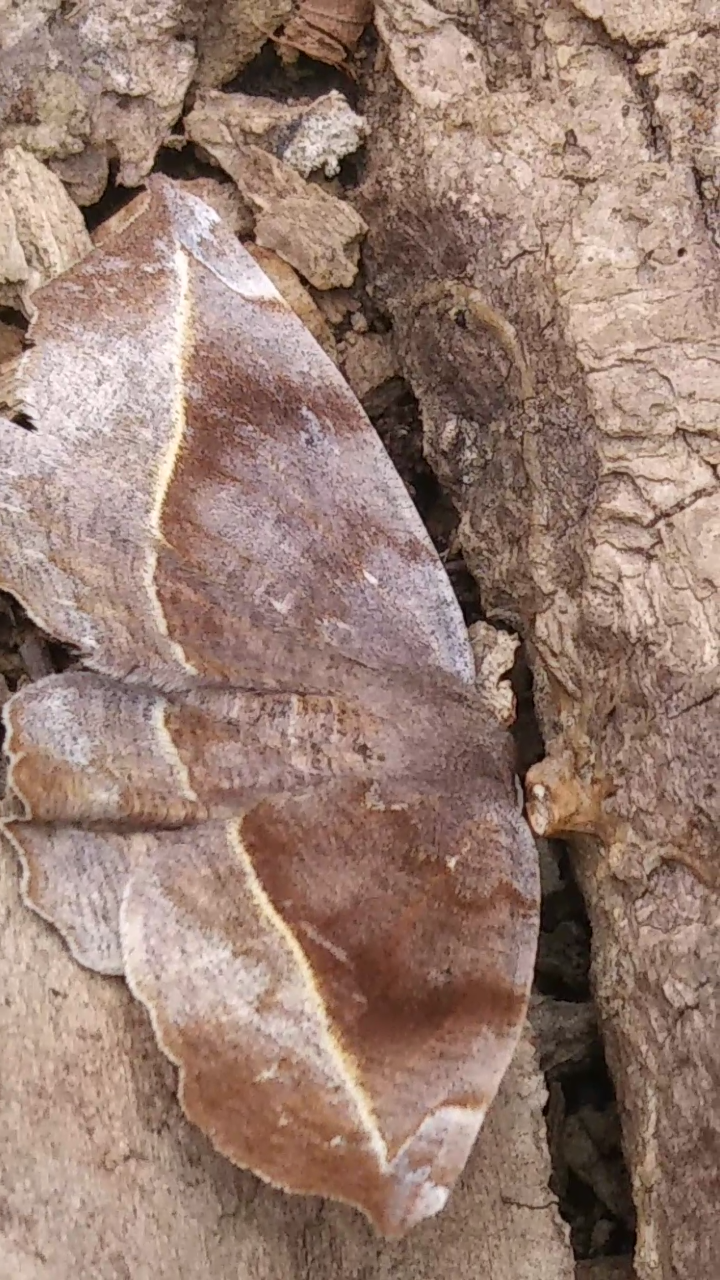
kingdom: Animalia
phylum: Arthropoda
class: Insecta
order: Lepidoptera
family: Geometridae
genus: Eutrapela
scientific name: Eutrapela clemataria
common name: Curved-toothed geometer
